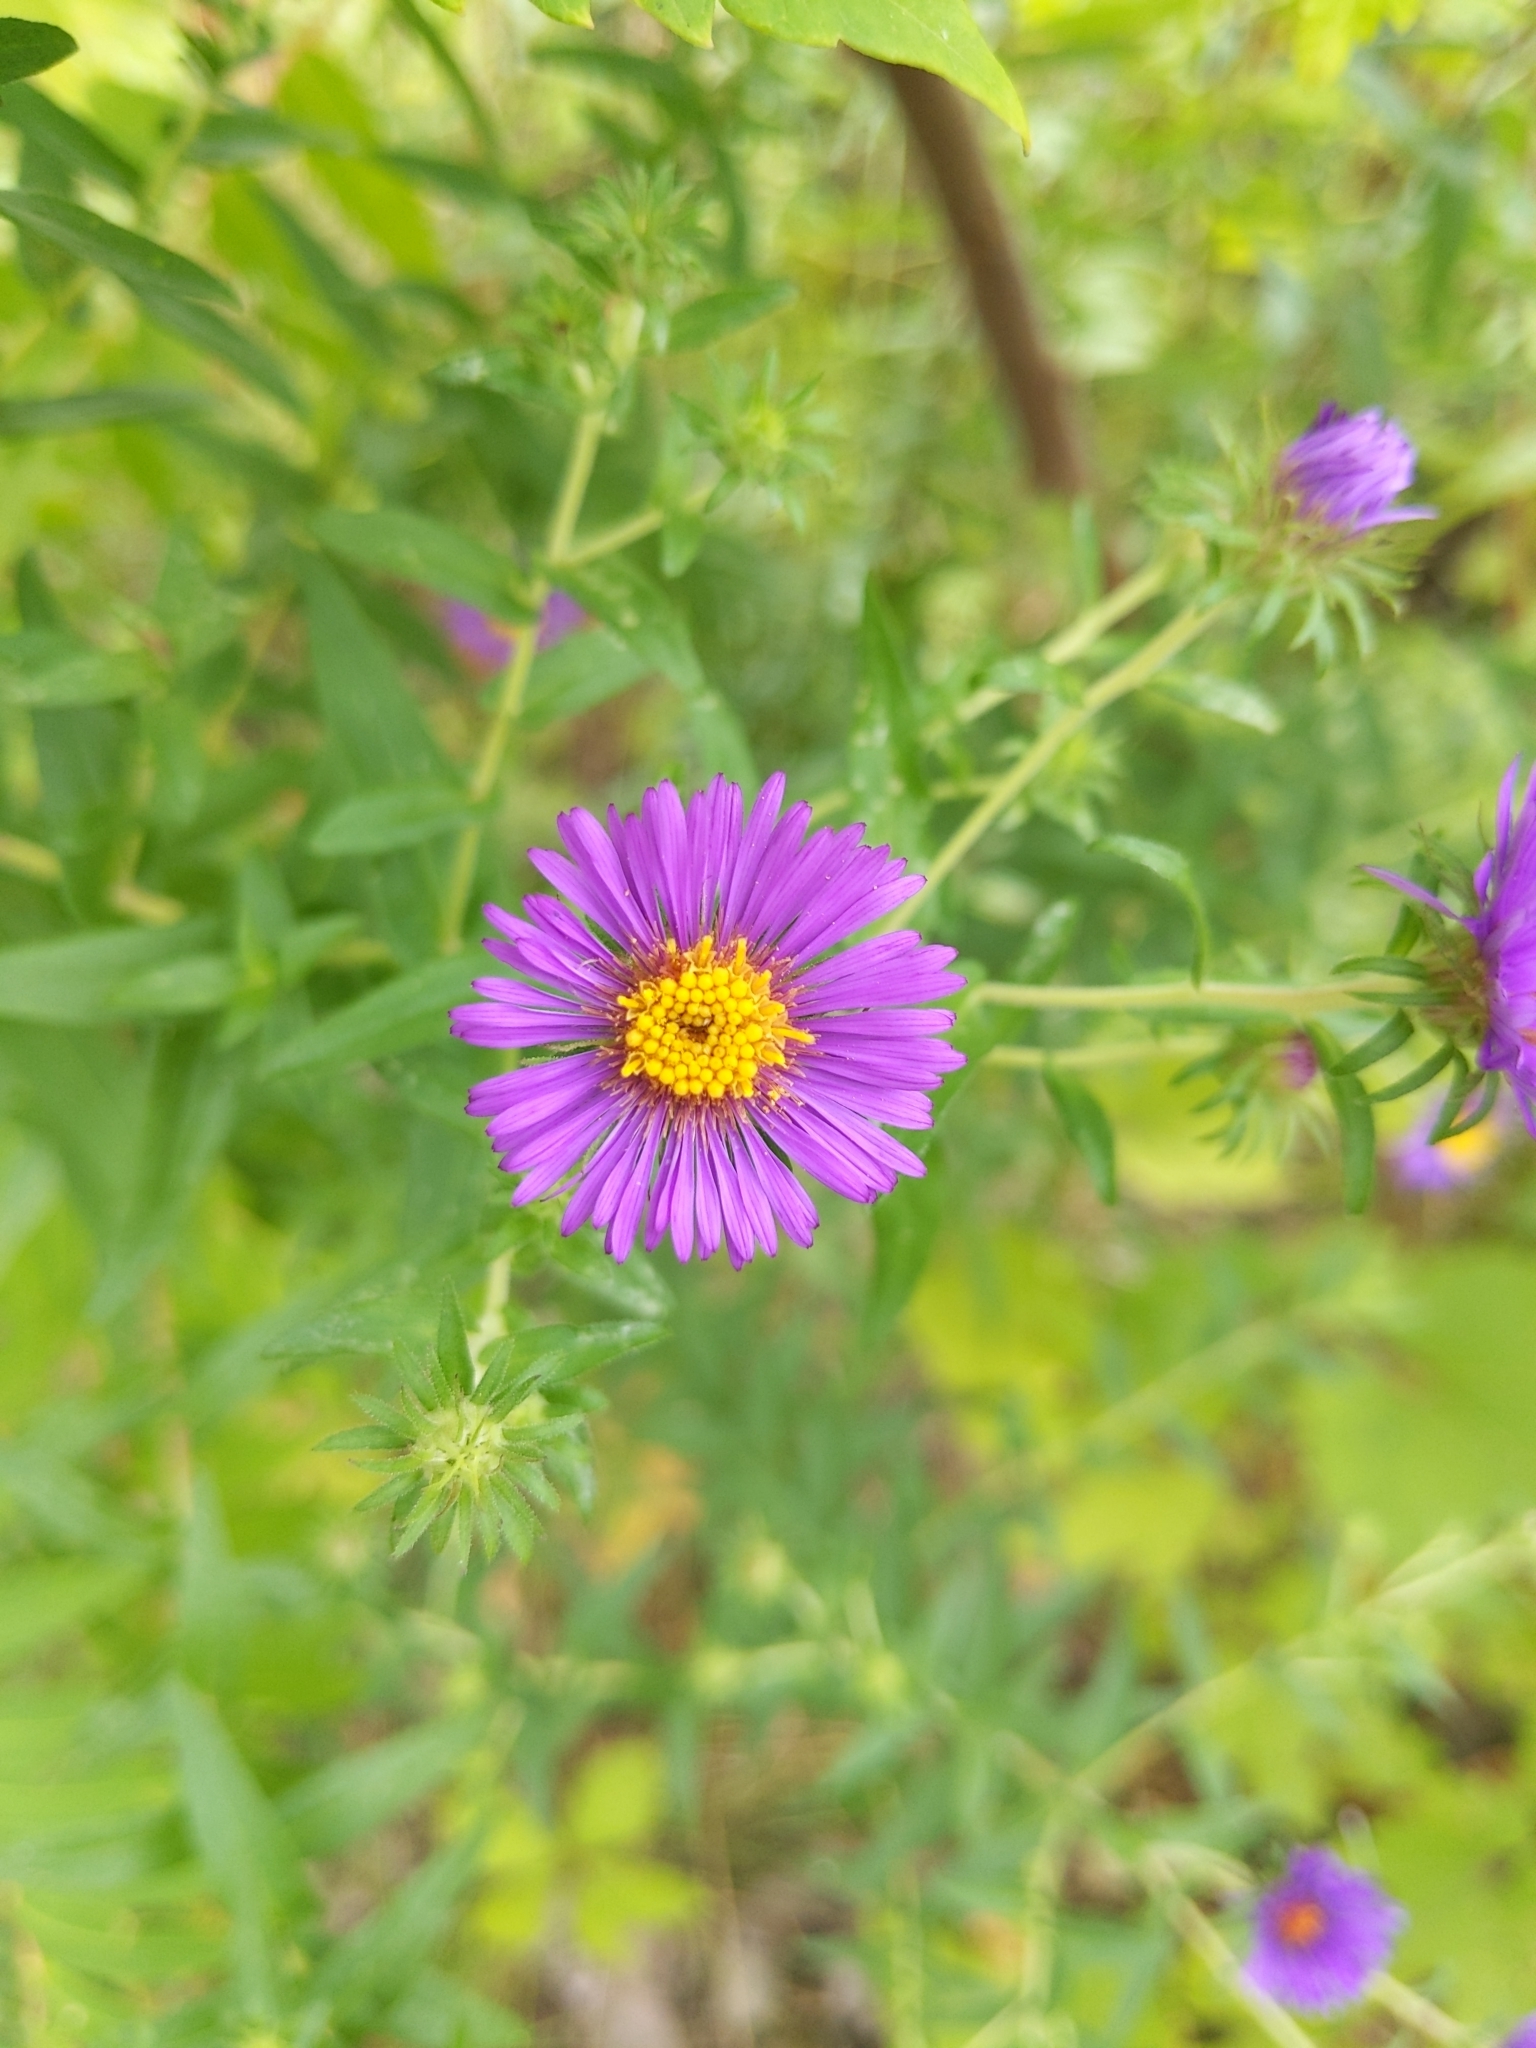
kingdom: Plantae
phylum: Tracheophyta
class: Magnoliopsida
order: Asterales
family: Asteraceae
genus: Symphyotrichum
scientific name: Symphyotrichum novae-angliae
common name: Michaelmas daisy
